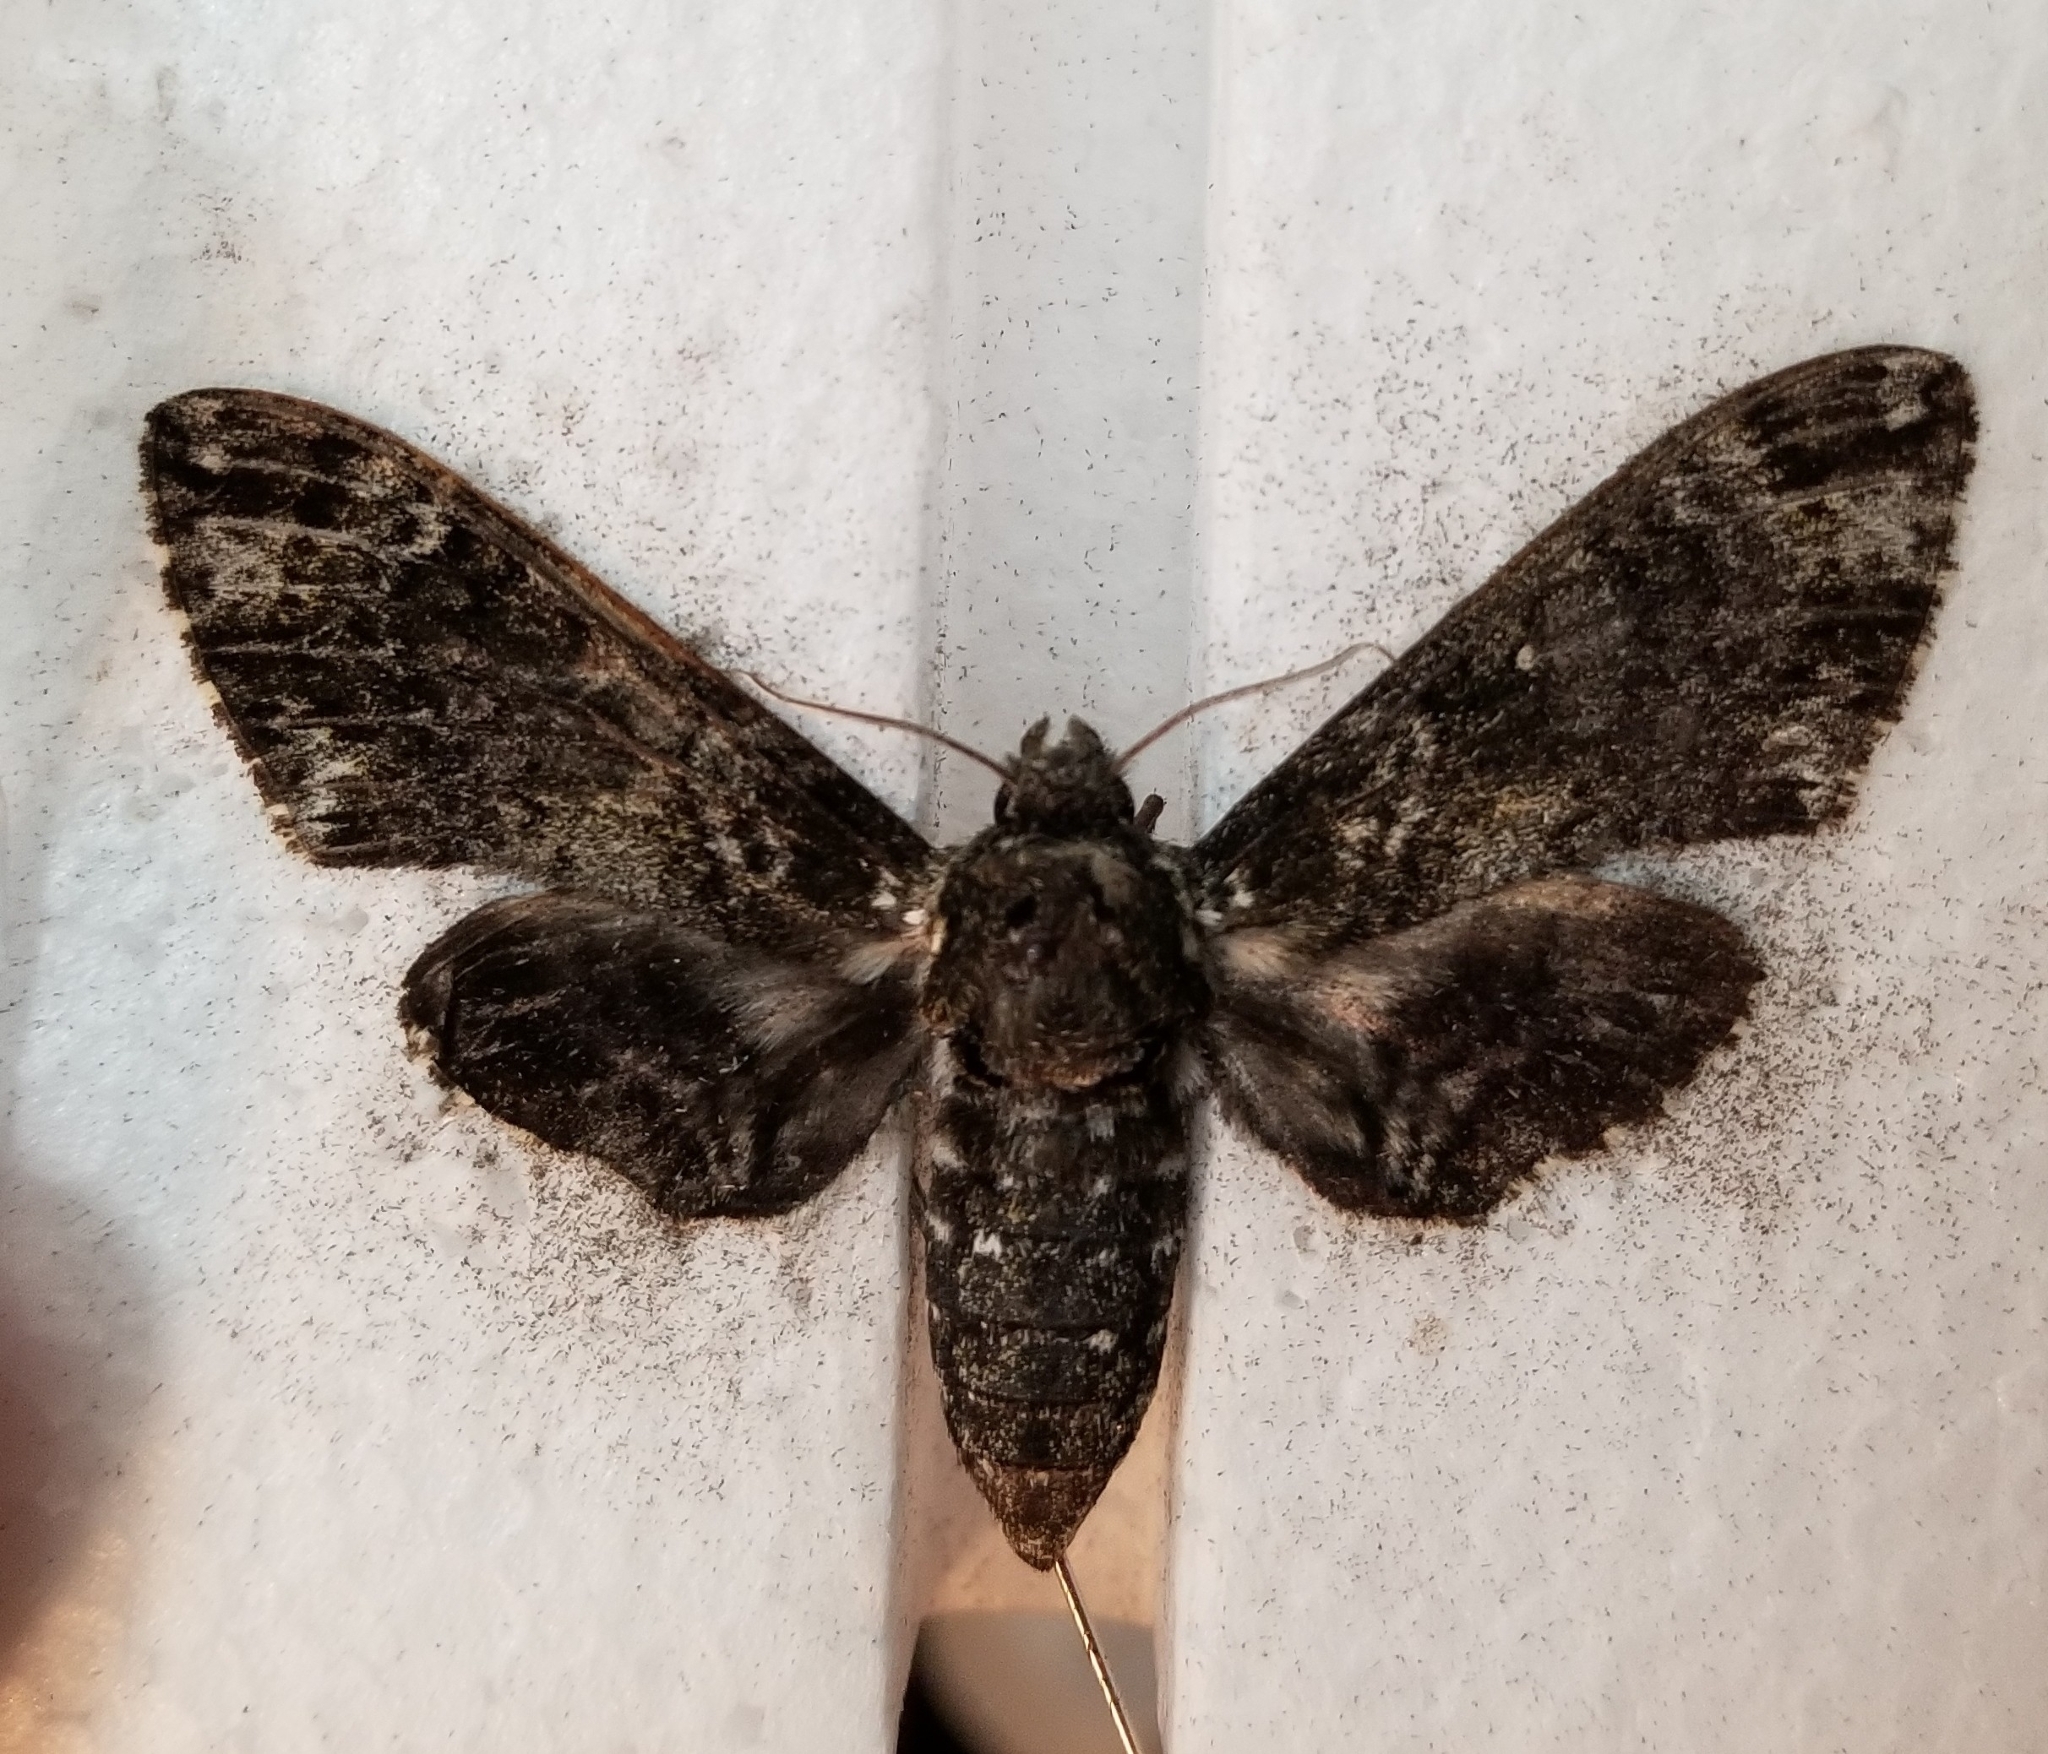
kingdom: Animalia
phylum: Arthropoda
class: Insecta
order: Lepidoptera
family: Sphingidae
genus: Dolba
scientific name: Dolba hyloeus
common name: Pawpaw sphinx
